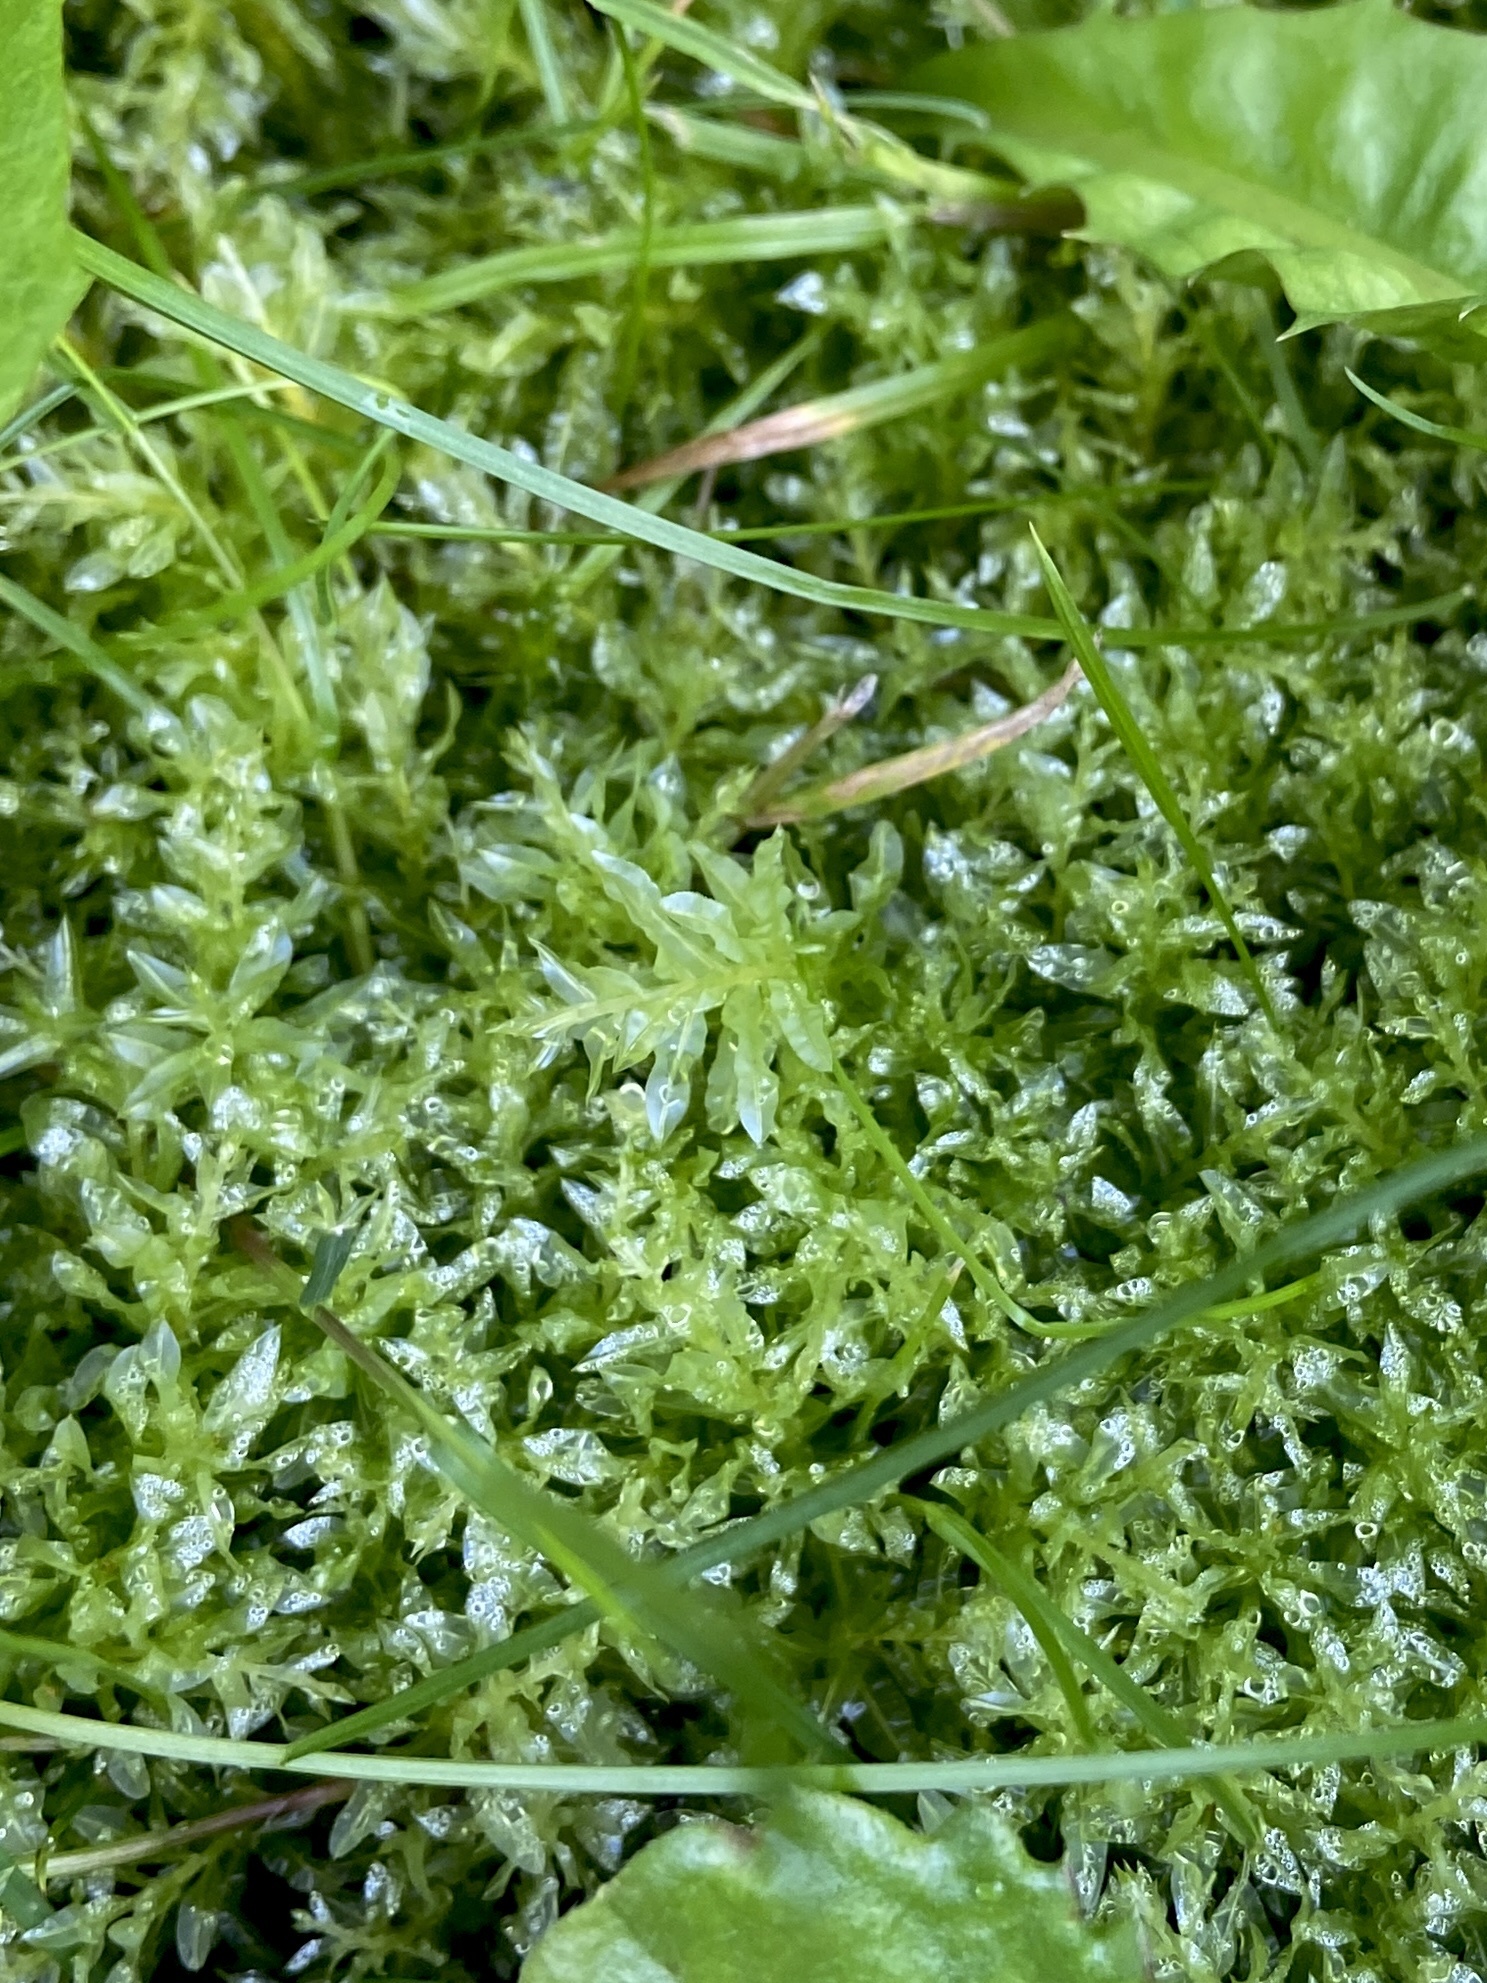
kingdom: Plantae
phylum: Bryophyta
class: Bryopsida
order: Bryales
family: Mniaceae
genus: Plagiomnium
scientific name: Plagiomnium undulatum
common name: Hart's-tongue thyme-moss
